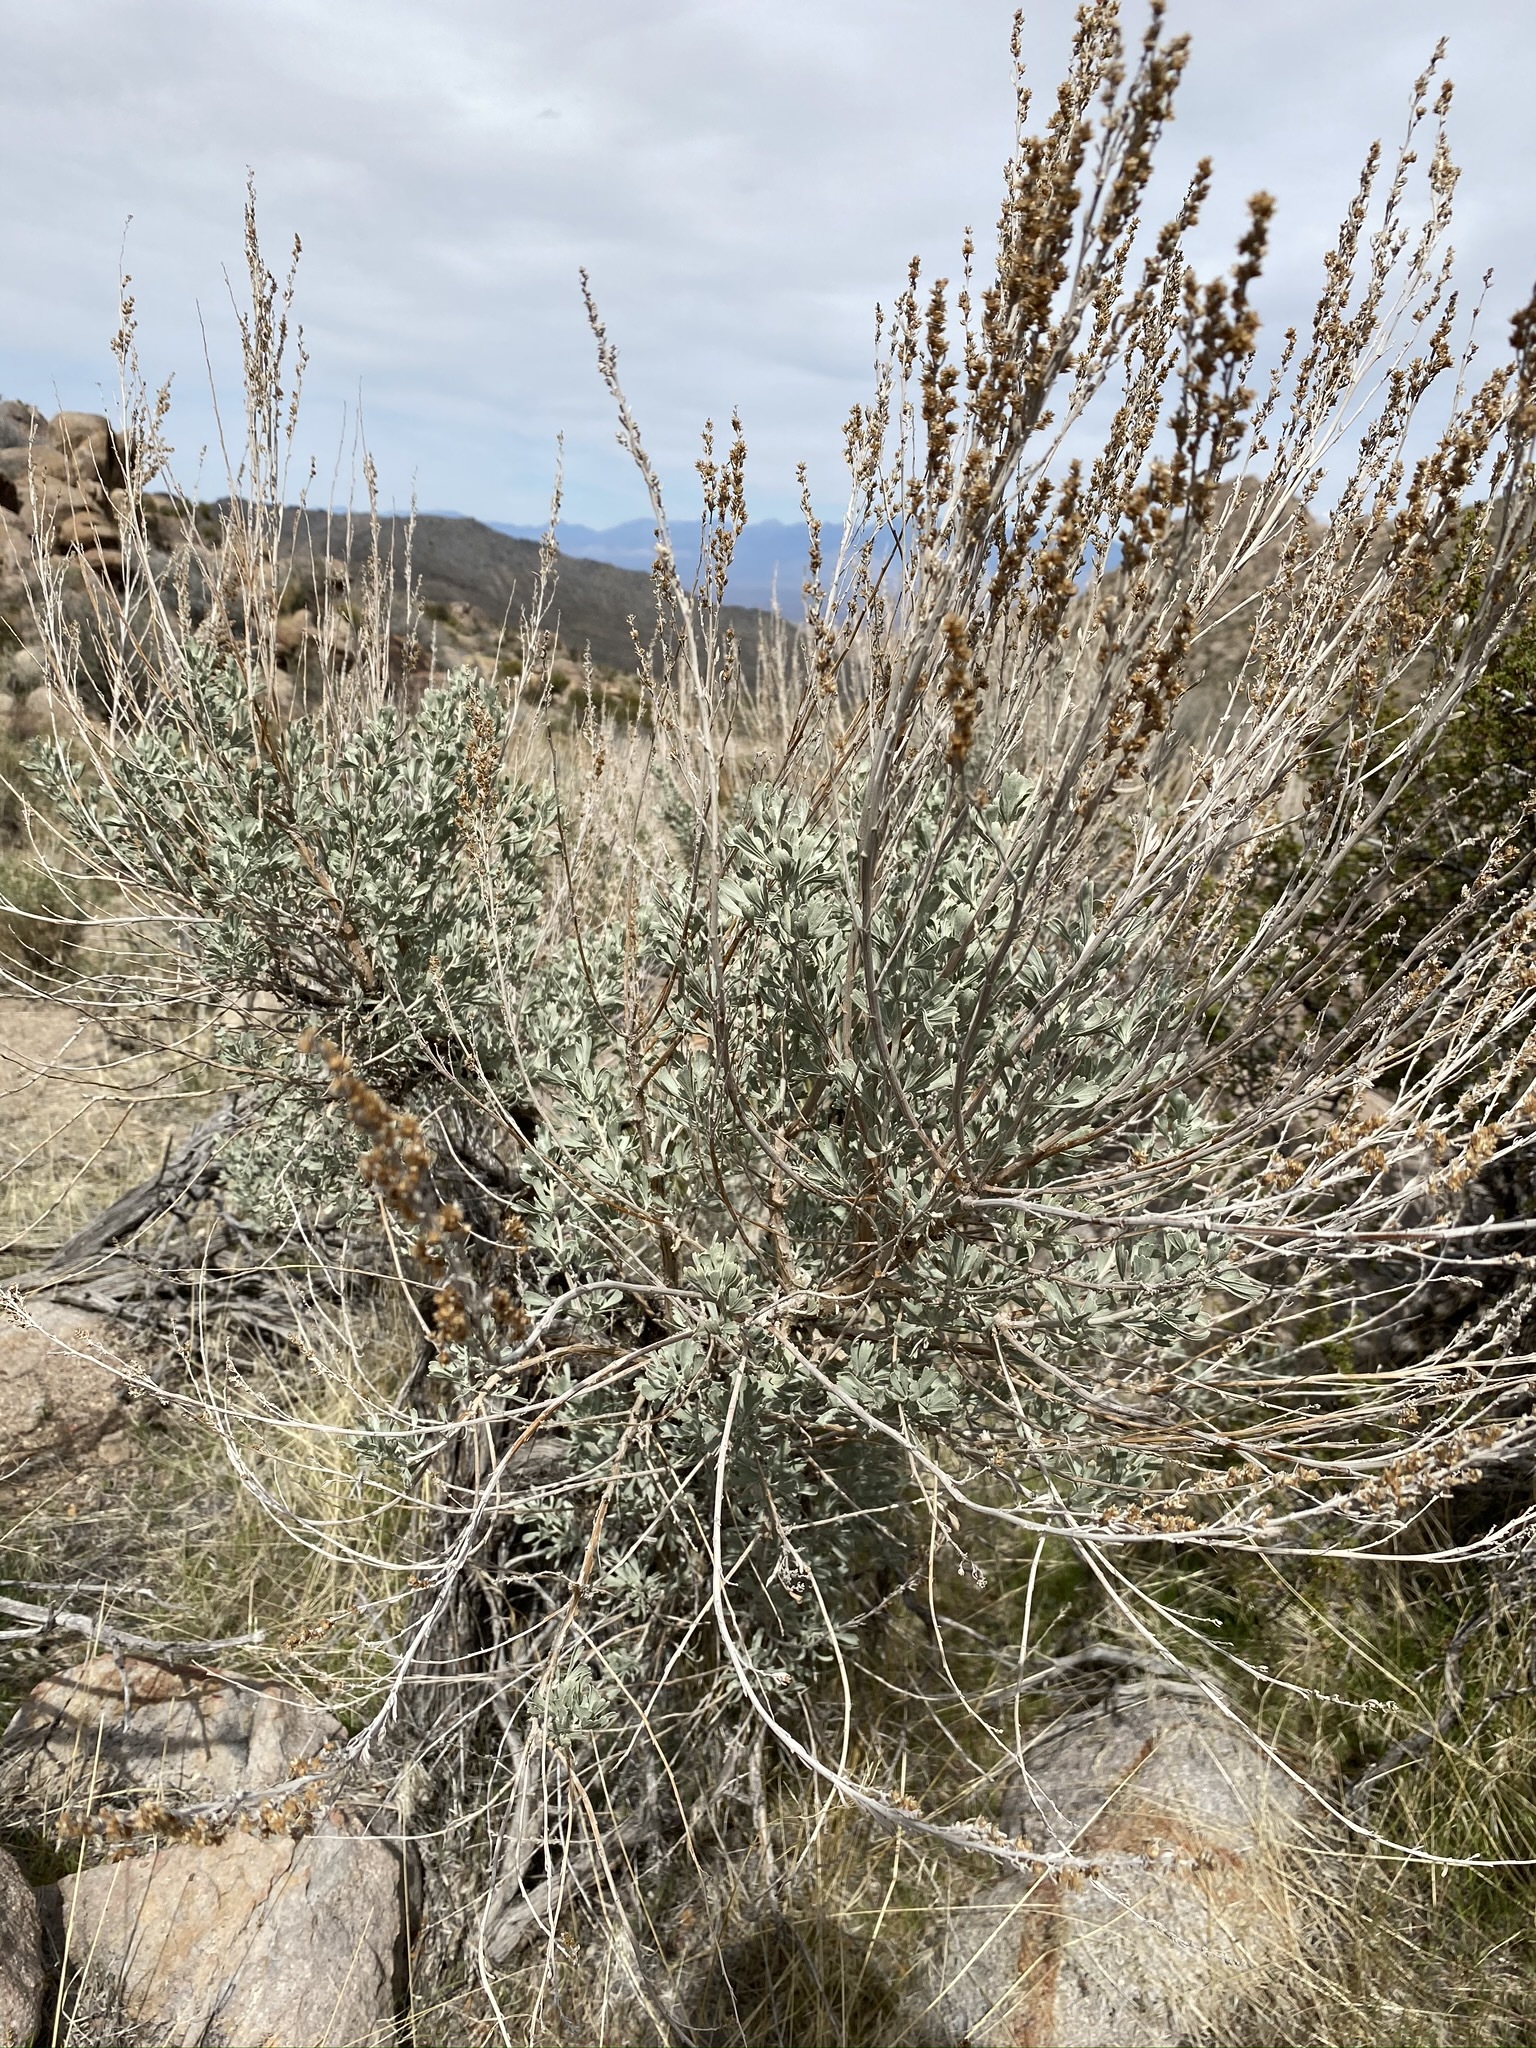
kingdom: Plantae
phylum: Tracheophyta
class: Magnoliopsida
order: Asterales
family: Asteraceae
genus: Artemisia
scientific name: Artemisia tridentata
